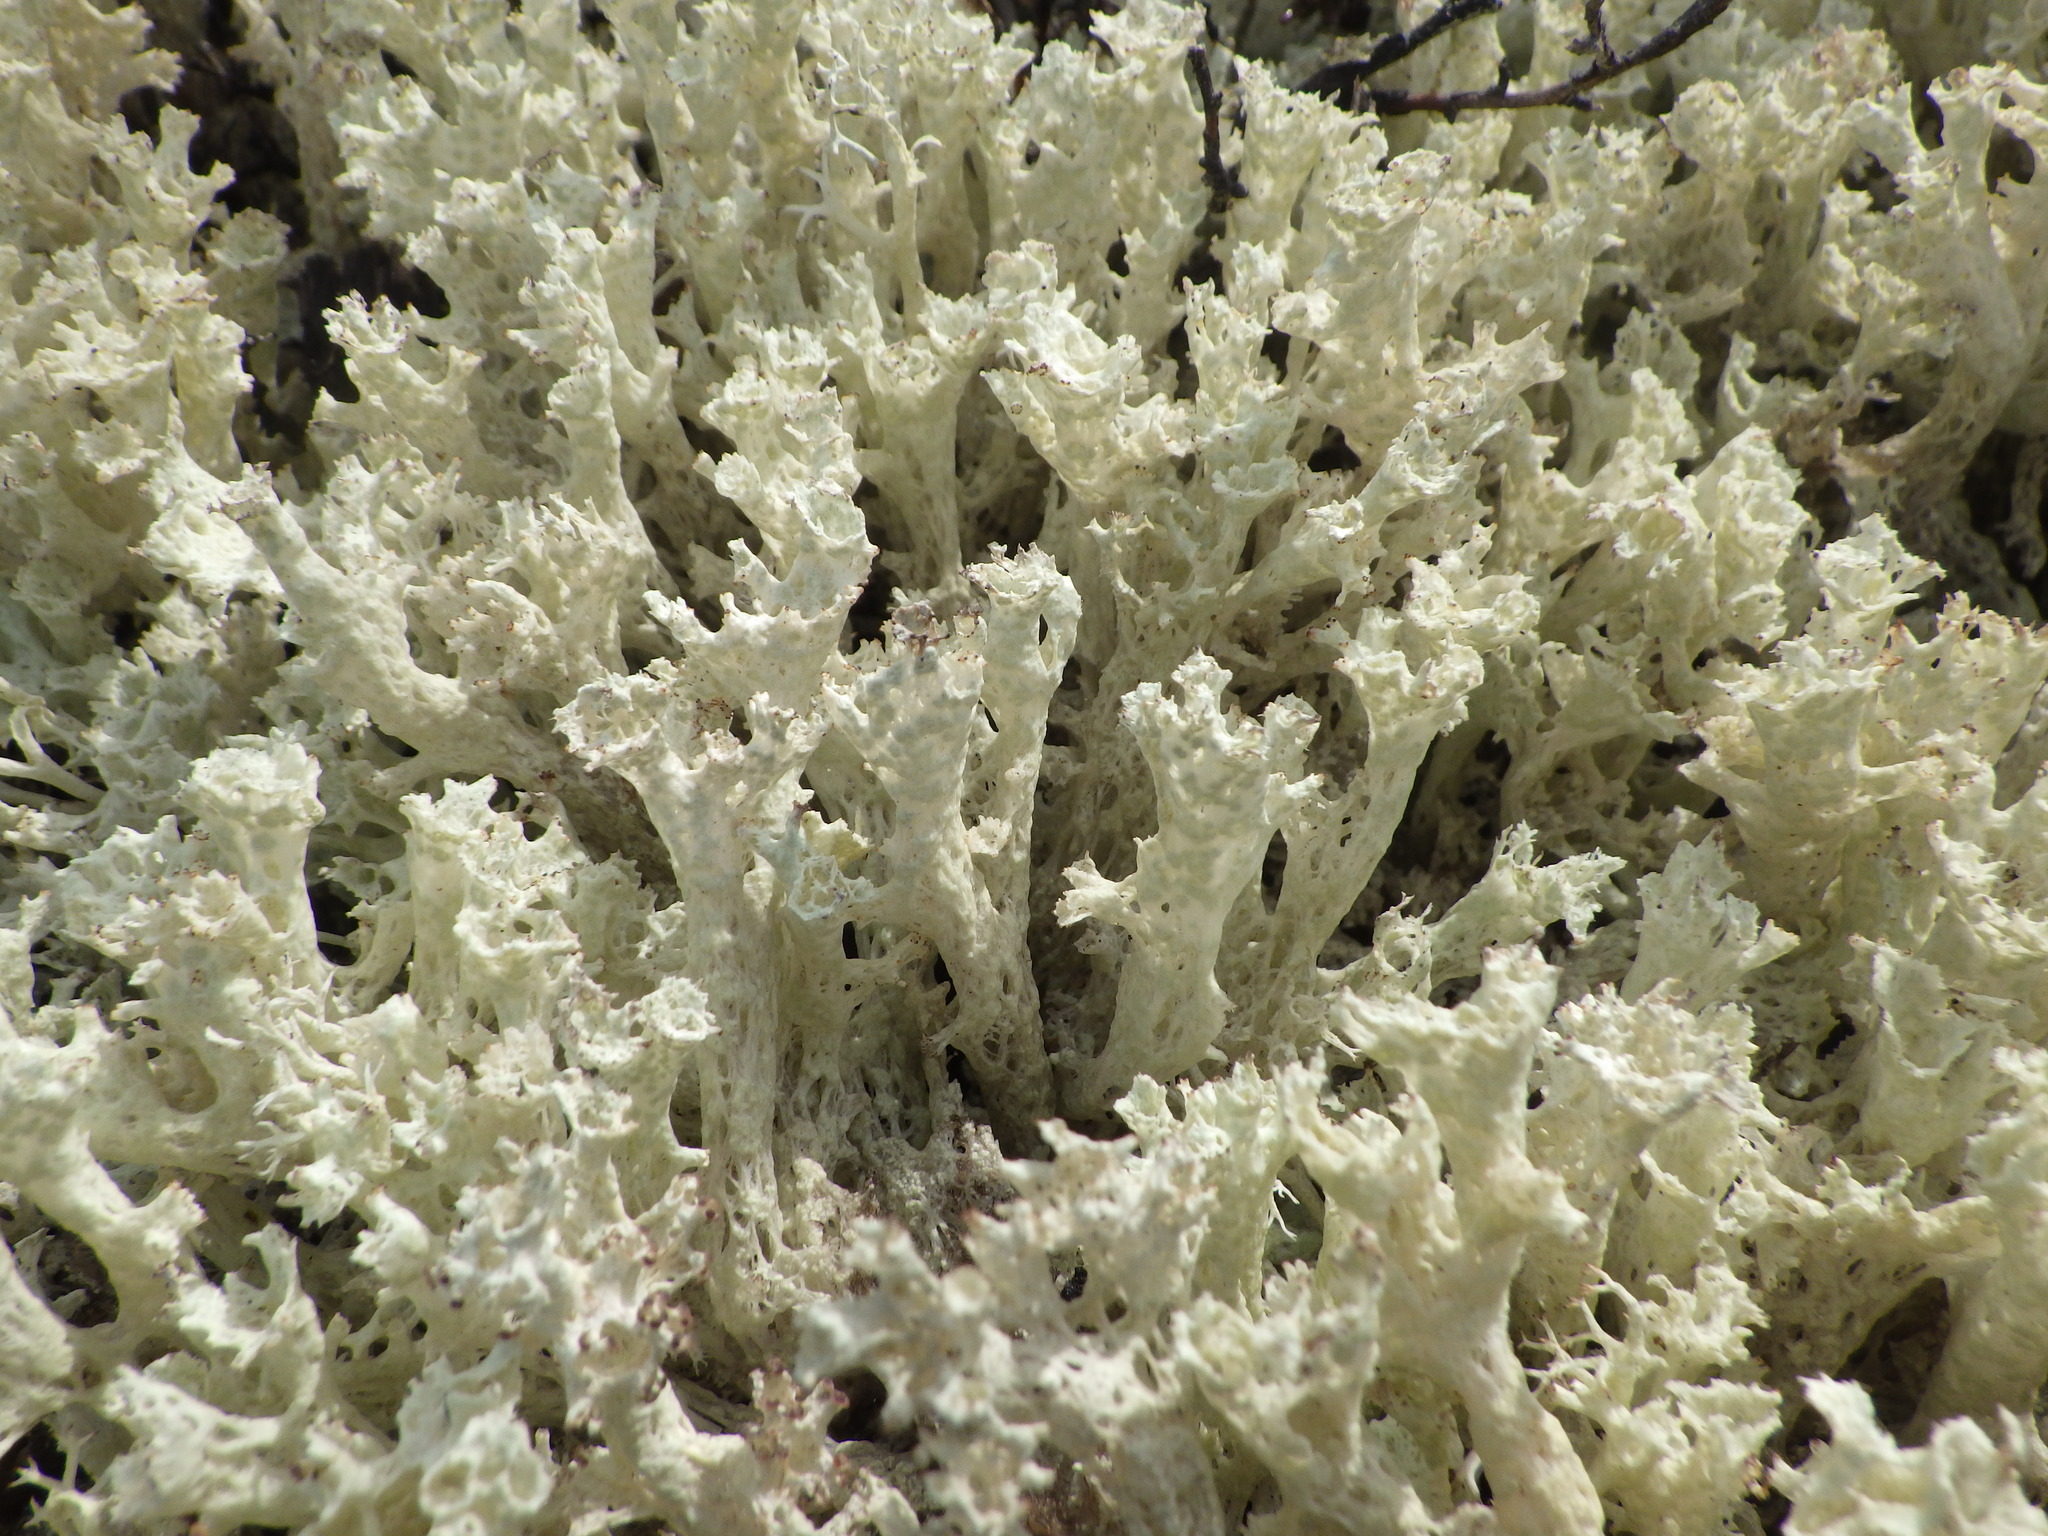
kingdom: Fungi
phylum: Ascomycota
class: Lecanoromycetes
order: Lecanorales
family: Cladoniaceae
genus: Cladonia
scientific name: Cladonia boryi
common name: Fishnet cladonia
